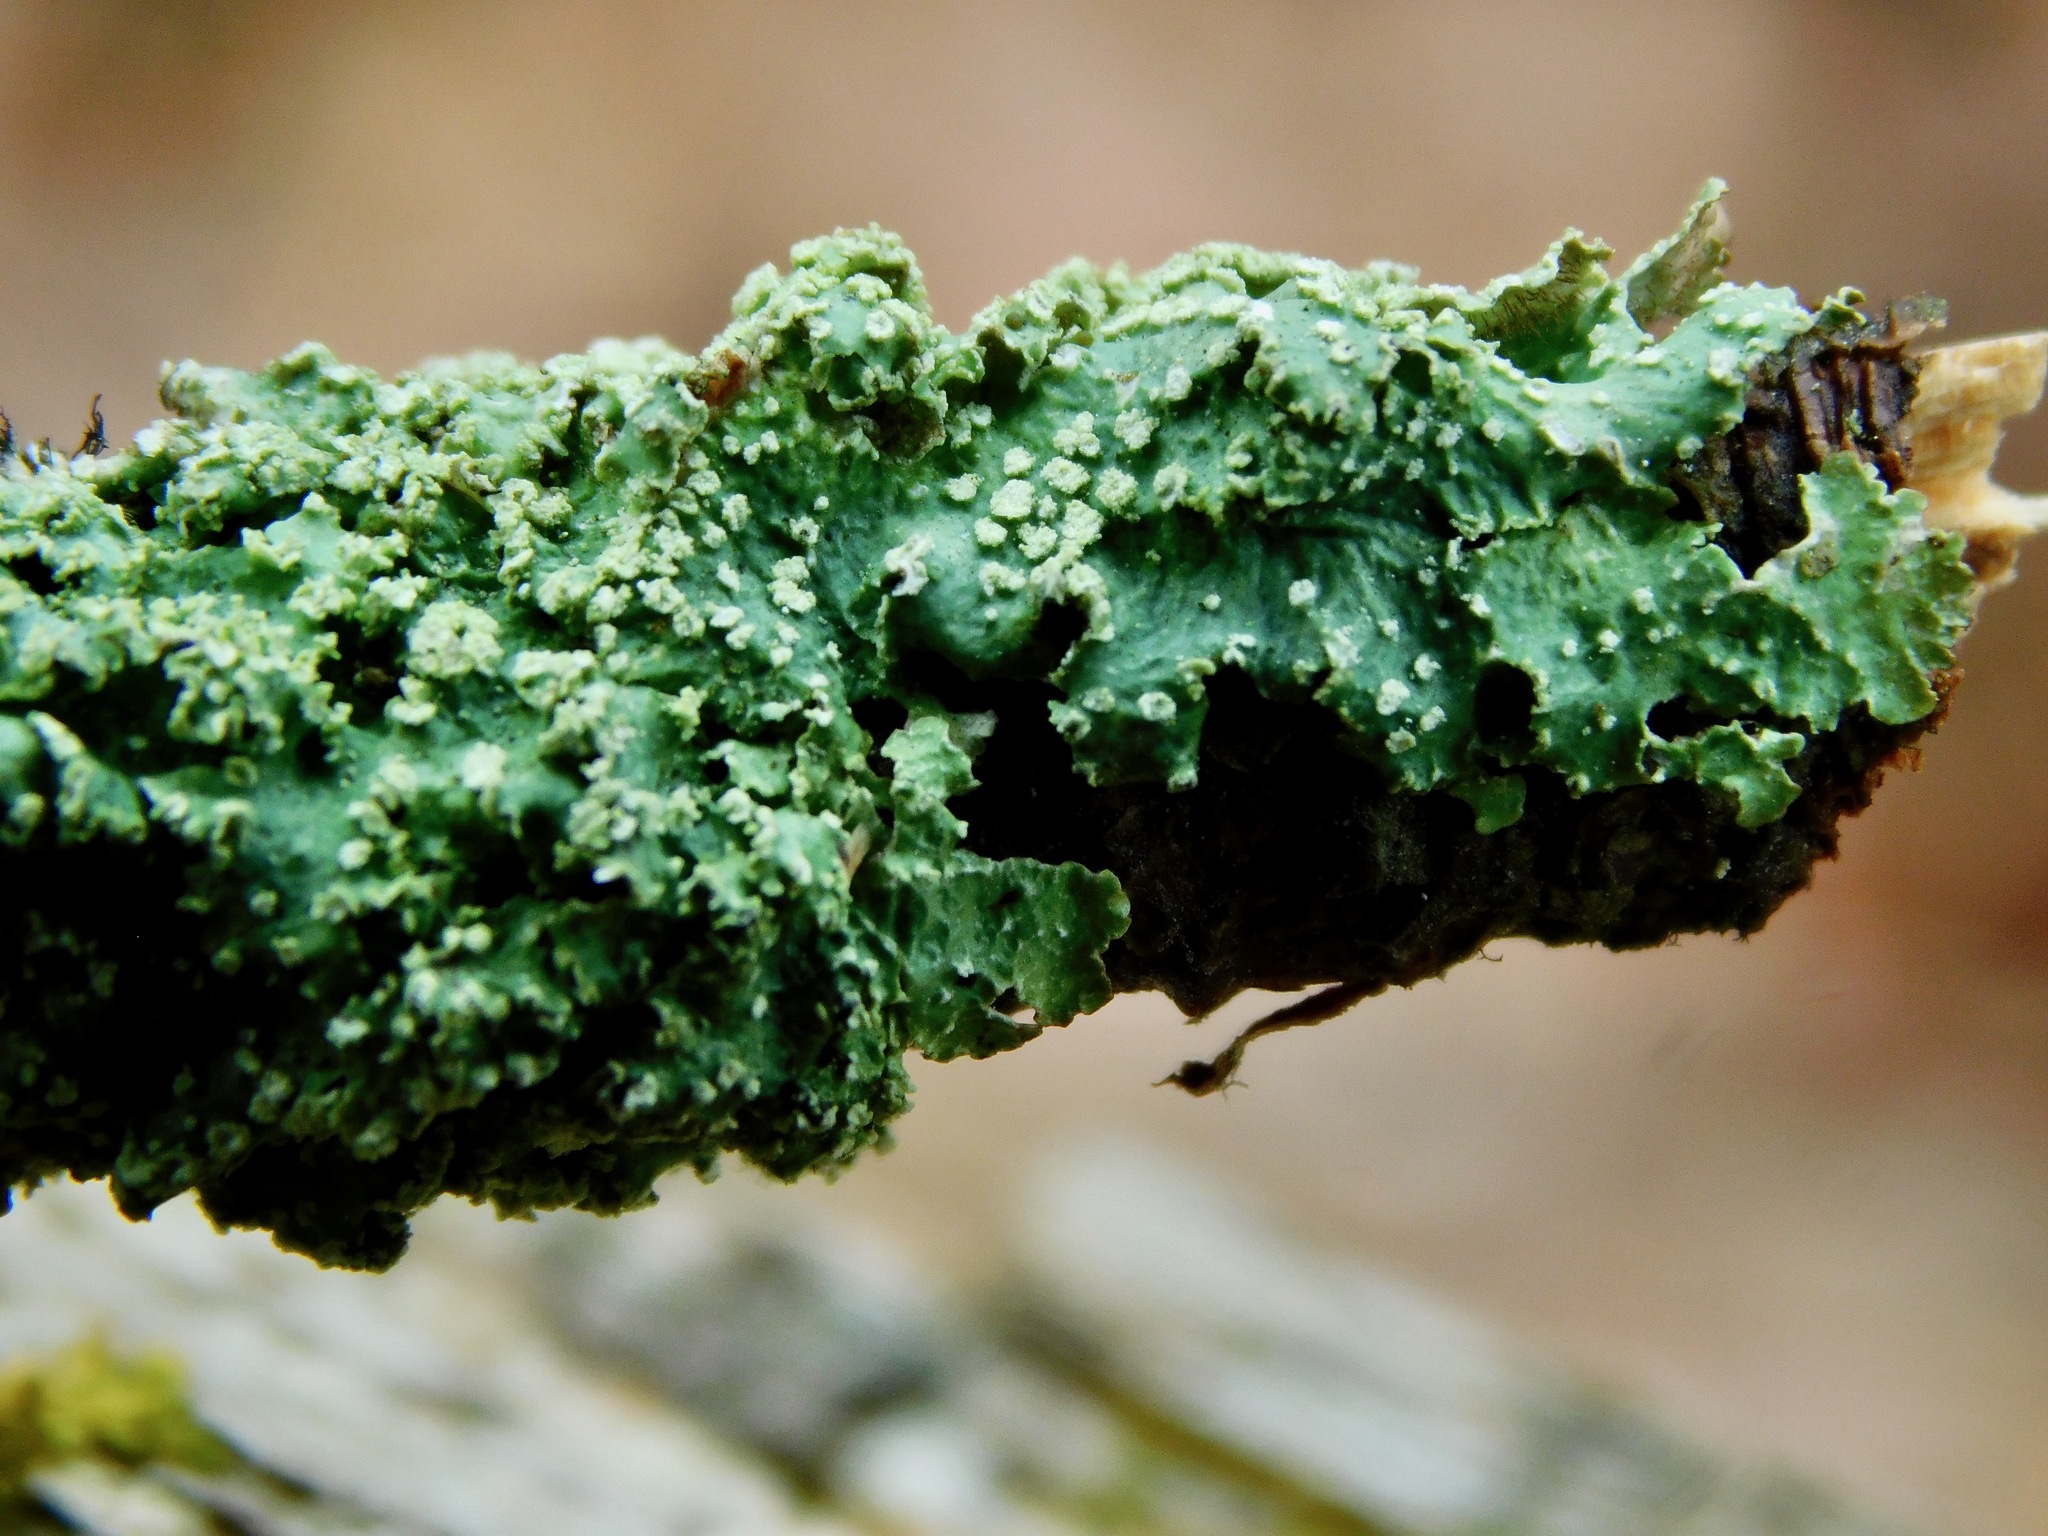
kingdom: Fungi
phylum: Ascomycota
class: Lecanoromycetes
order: Lecanorales
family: Parmeliaceae
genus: Crespoa
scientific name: Crespoa crozalsiana
